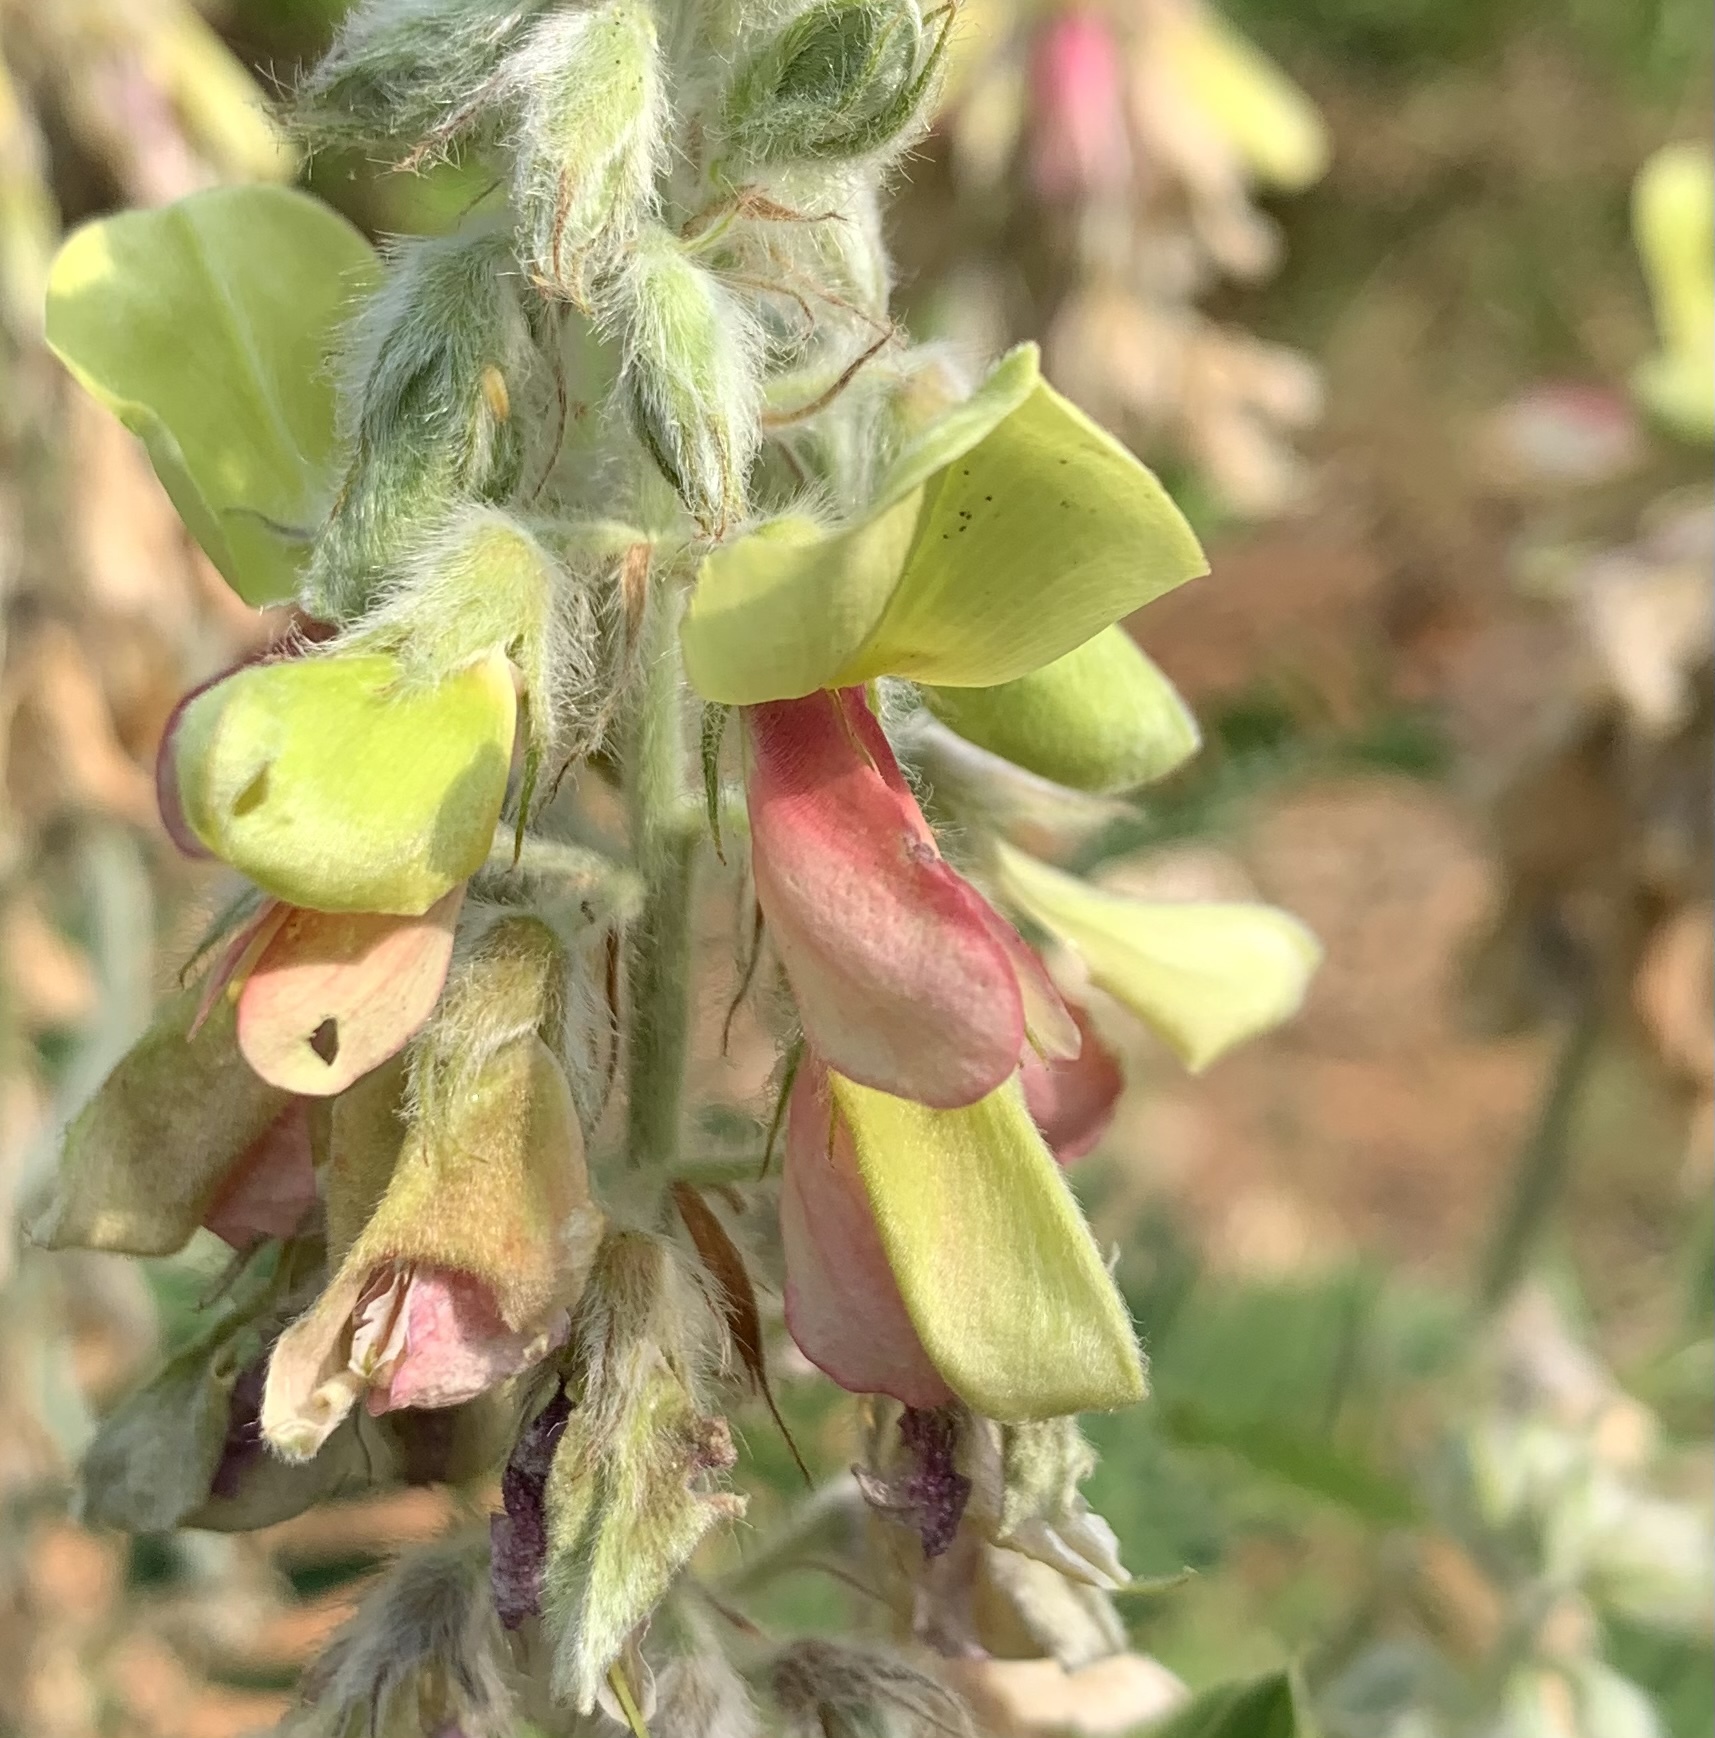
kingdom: Plantae
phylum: Tracheophyta
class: Magnoliopsida
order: Fabales
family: Fabaceae
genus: Tephrosia
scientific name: Tephrosia virginiana
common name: Rabbit-pea
